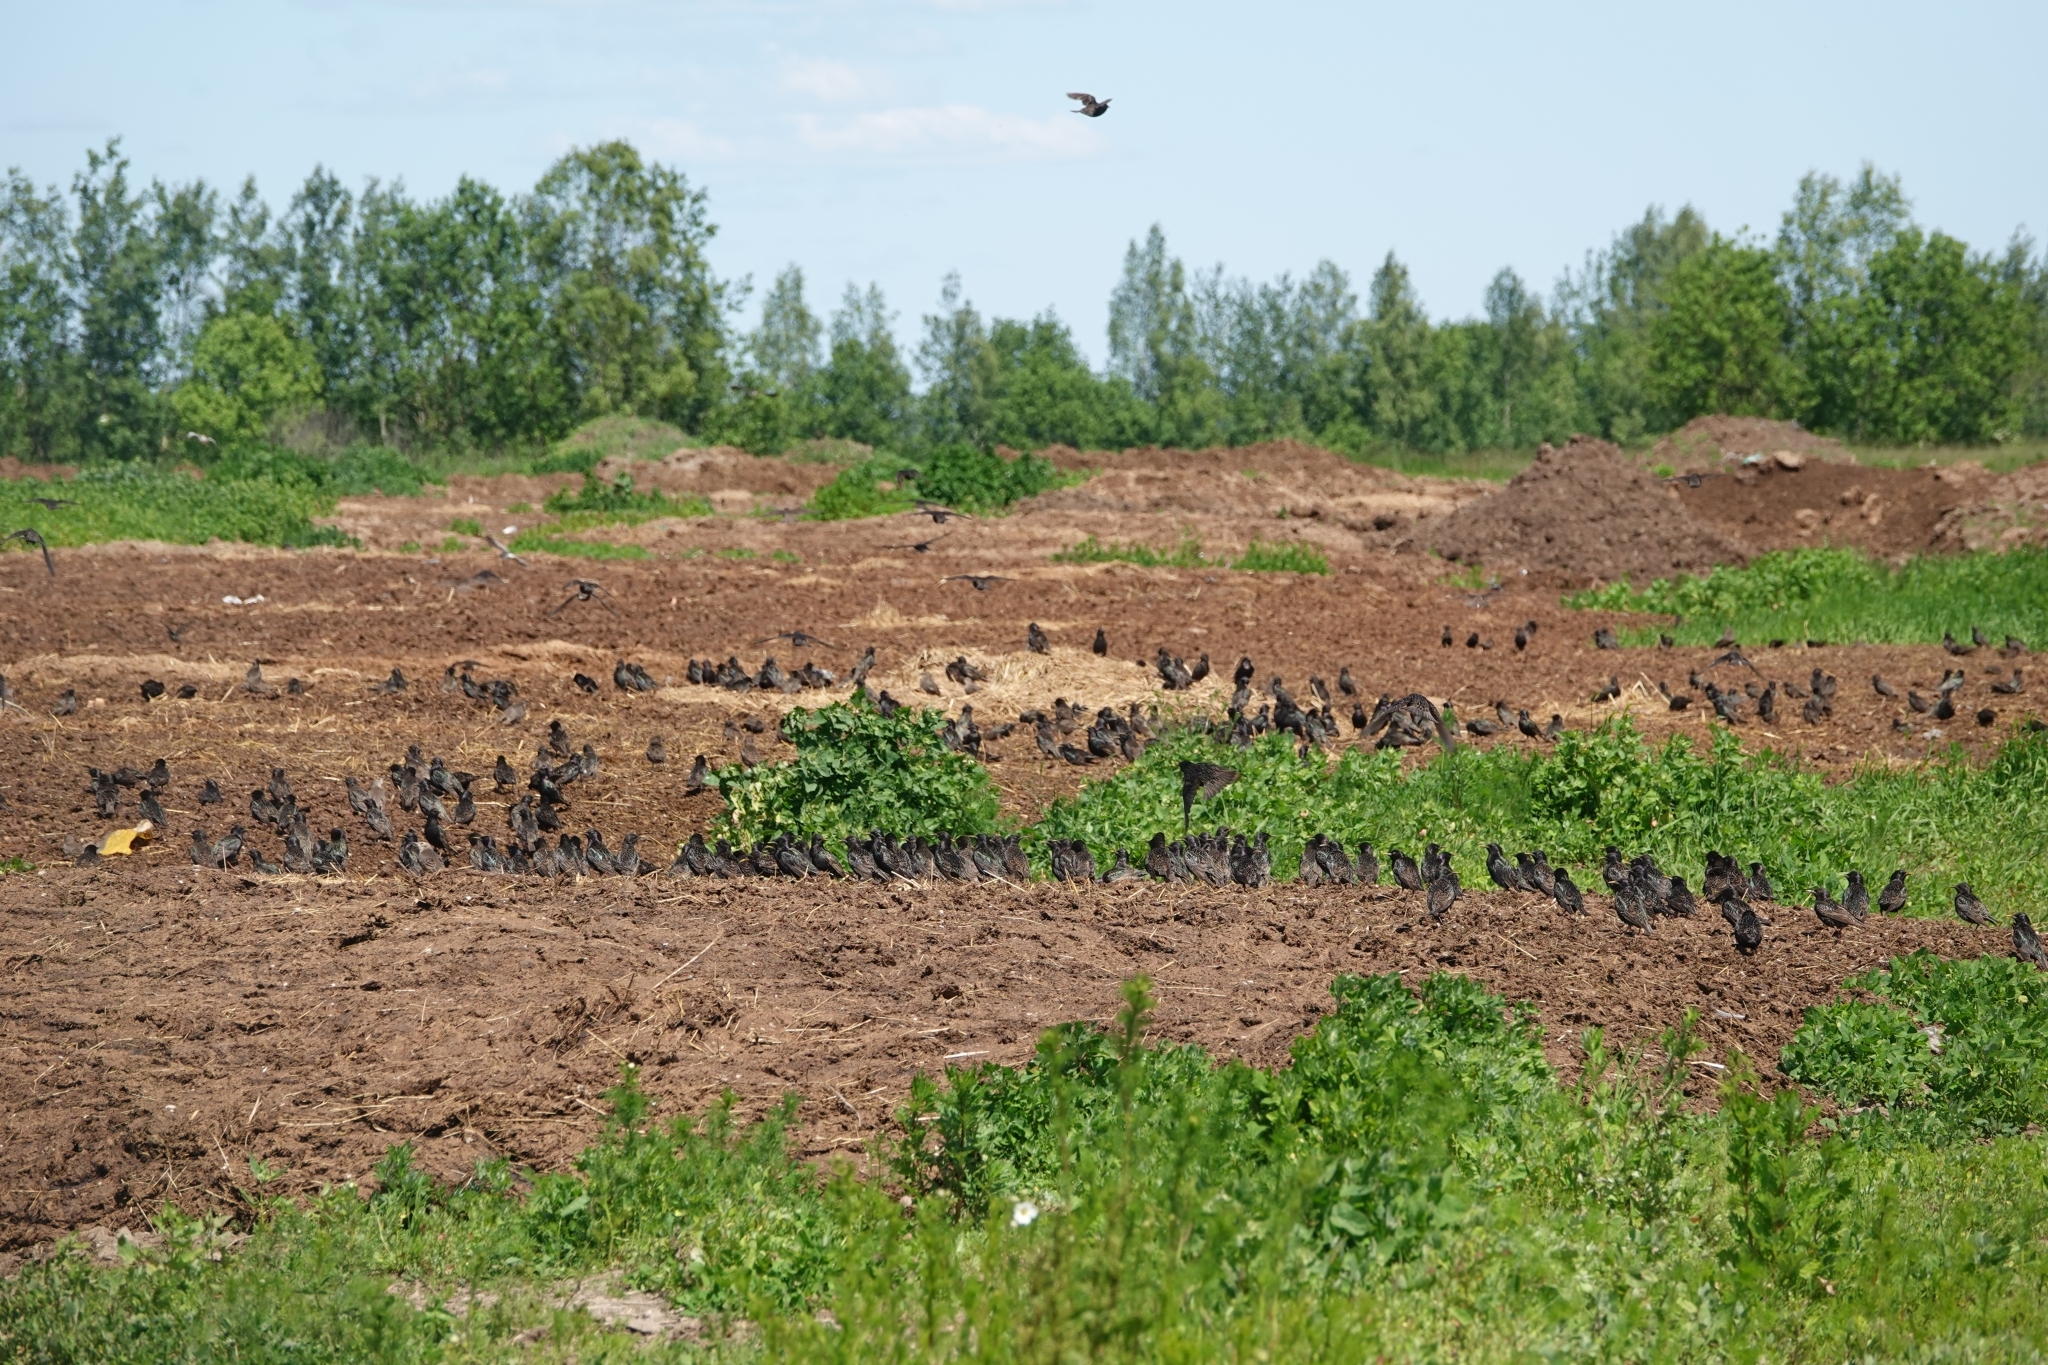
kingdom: Animalia
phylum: Chordata
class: Aves
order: Passeriformes
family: Sturnidae
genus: Sturnus
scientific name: Sturnus vulgaris
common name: Common starling
